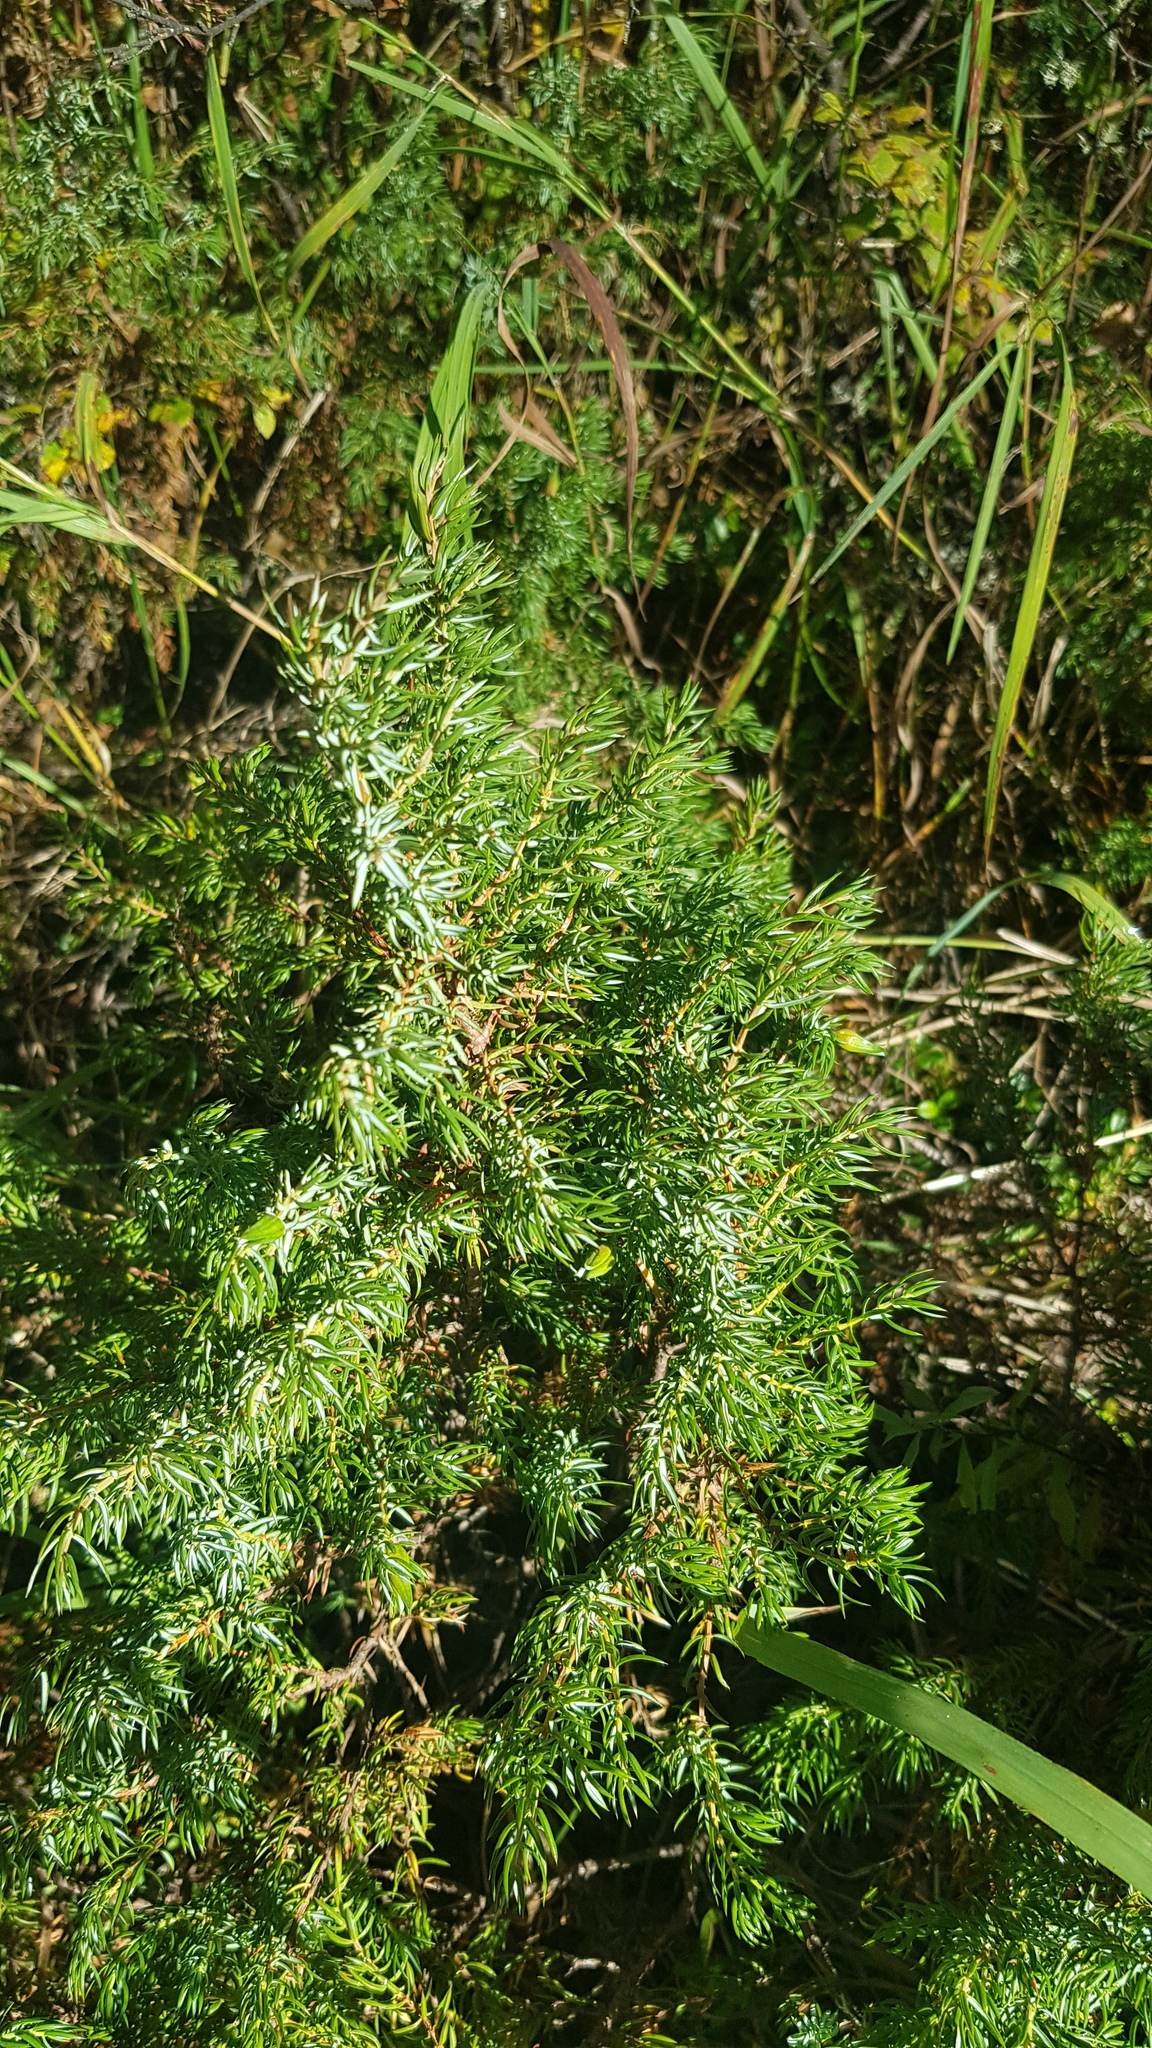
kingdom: Plantae
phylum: Tracheophyta
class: Pinopsida
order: Pinales
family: Cupressaceae
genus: Juniperus
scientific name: Juniperus communis
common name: Common juniper
